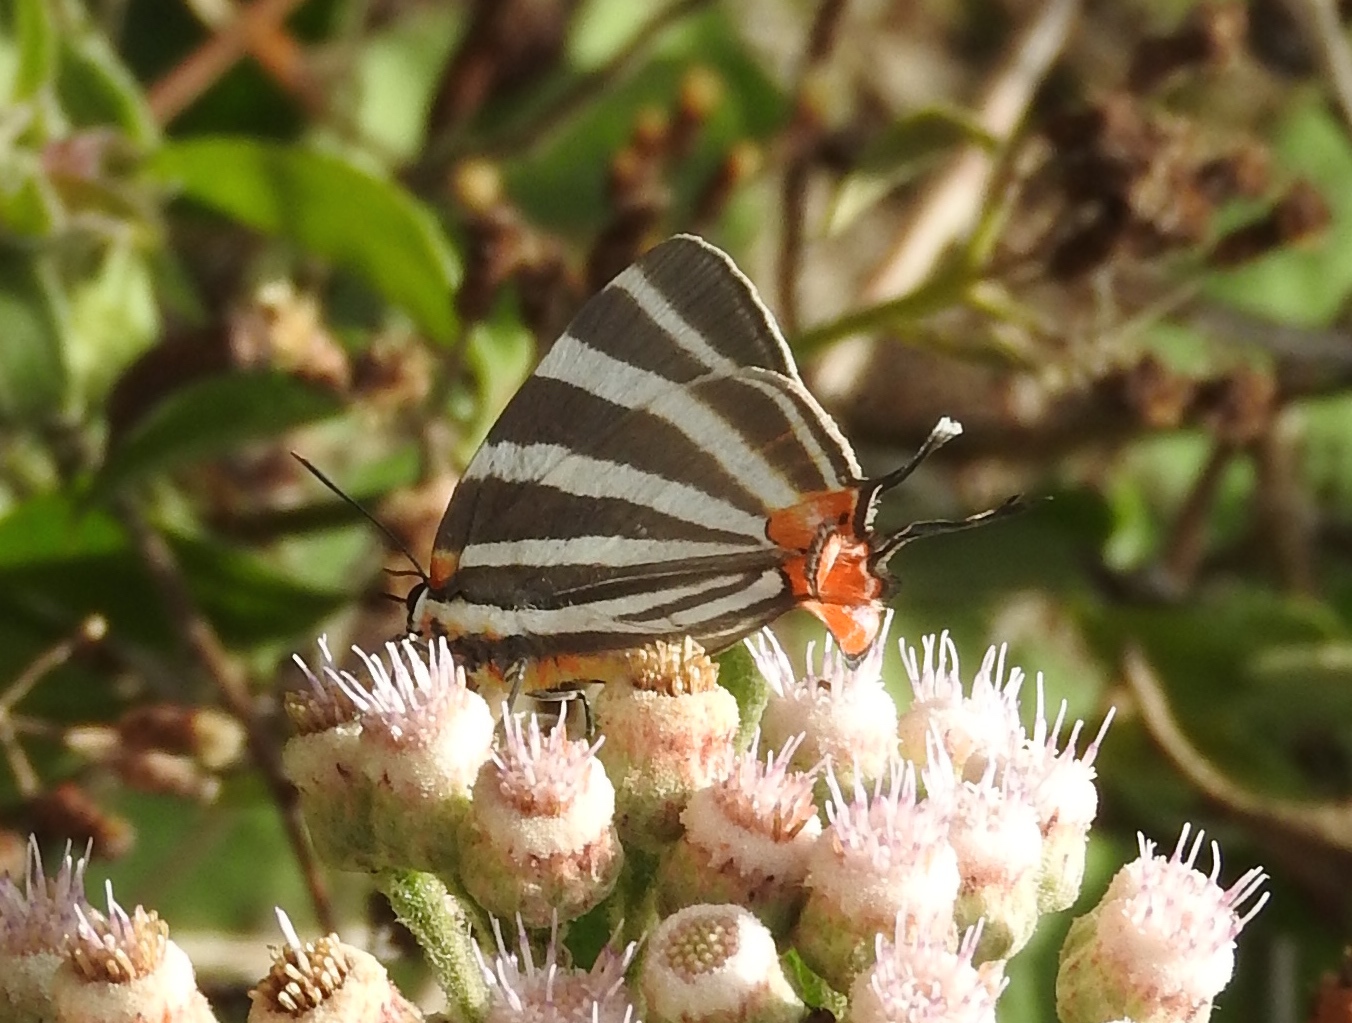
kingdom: Animalia
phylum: Arthropoda
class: Insecta
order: Lepidoptera
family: Lycaenidae
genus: Thecla
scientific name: Thecla bathildis
